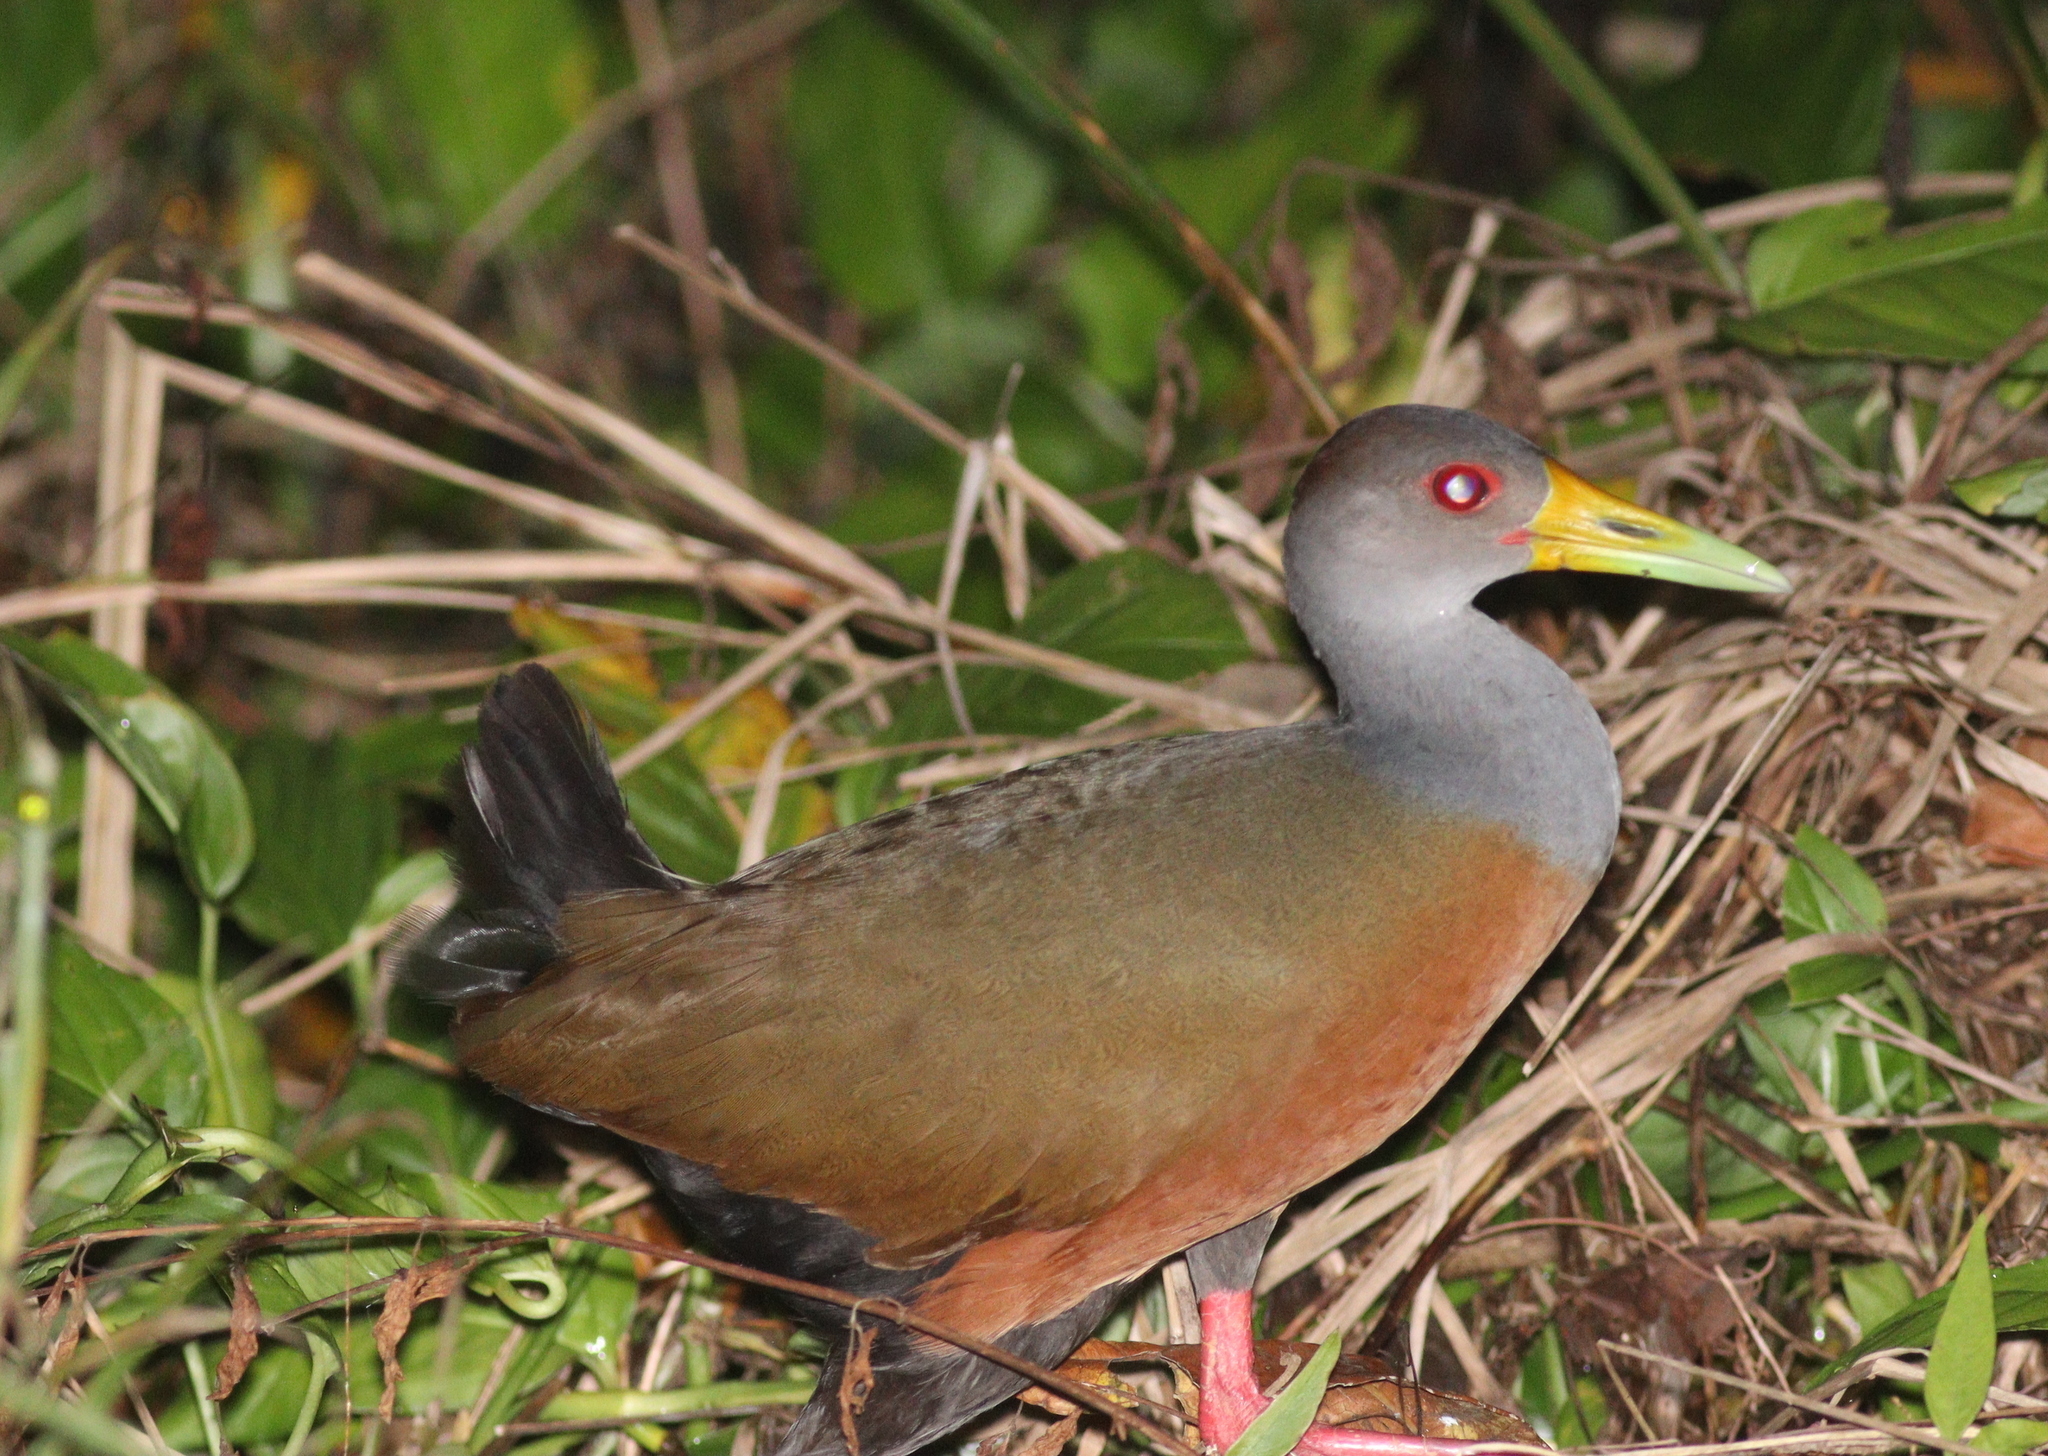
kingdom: Animalia
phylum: Chordata
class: Aves
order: Gruiformes
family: Rallidae
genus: Aramides
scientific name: Aramides cajanea
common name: Gray-necked wood-rail
